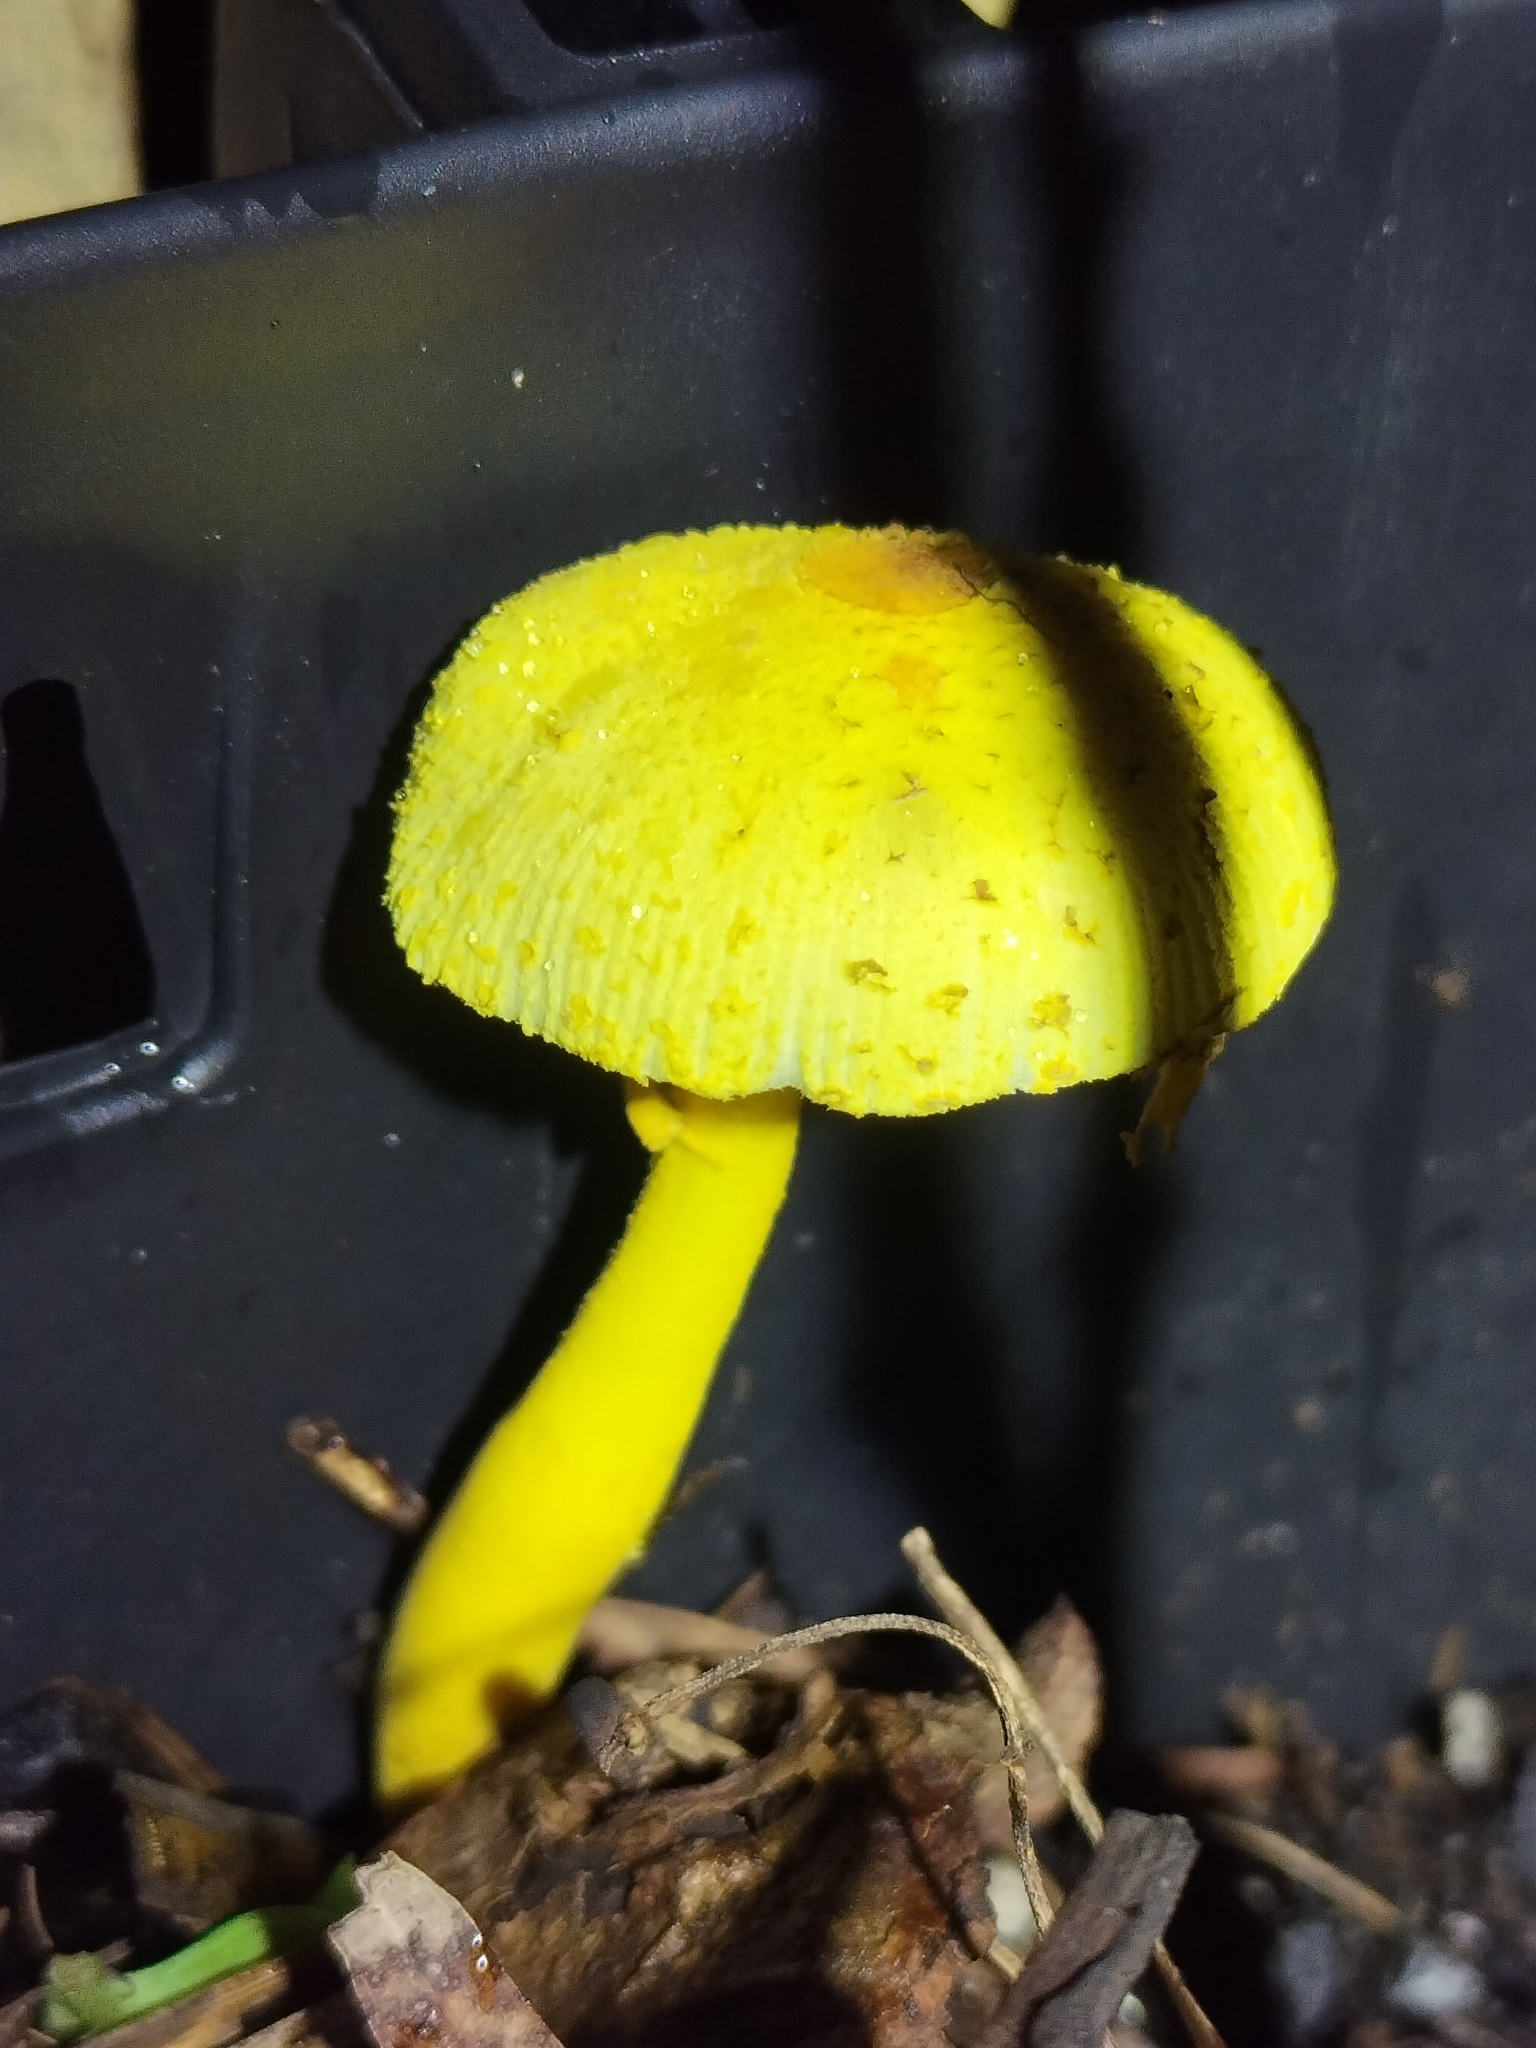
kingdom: Fungi
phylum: Basidiomycota
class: Agaricomycetes
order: Agaricales
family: Agaricaceae
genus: Leucocoprinus
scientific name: Leucocoprinus birnbaumii
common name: Plantpot dapperling
